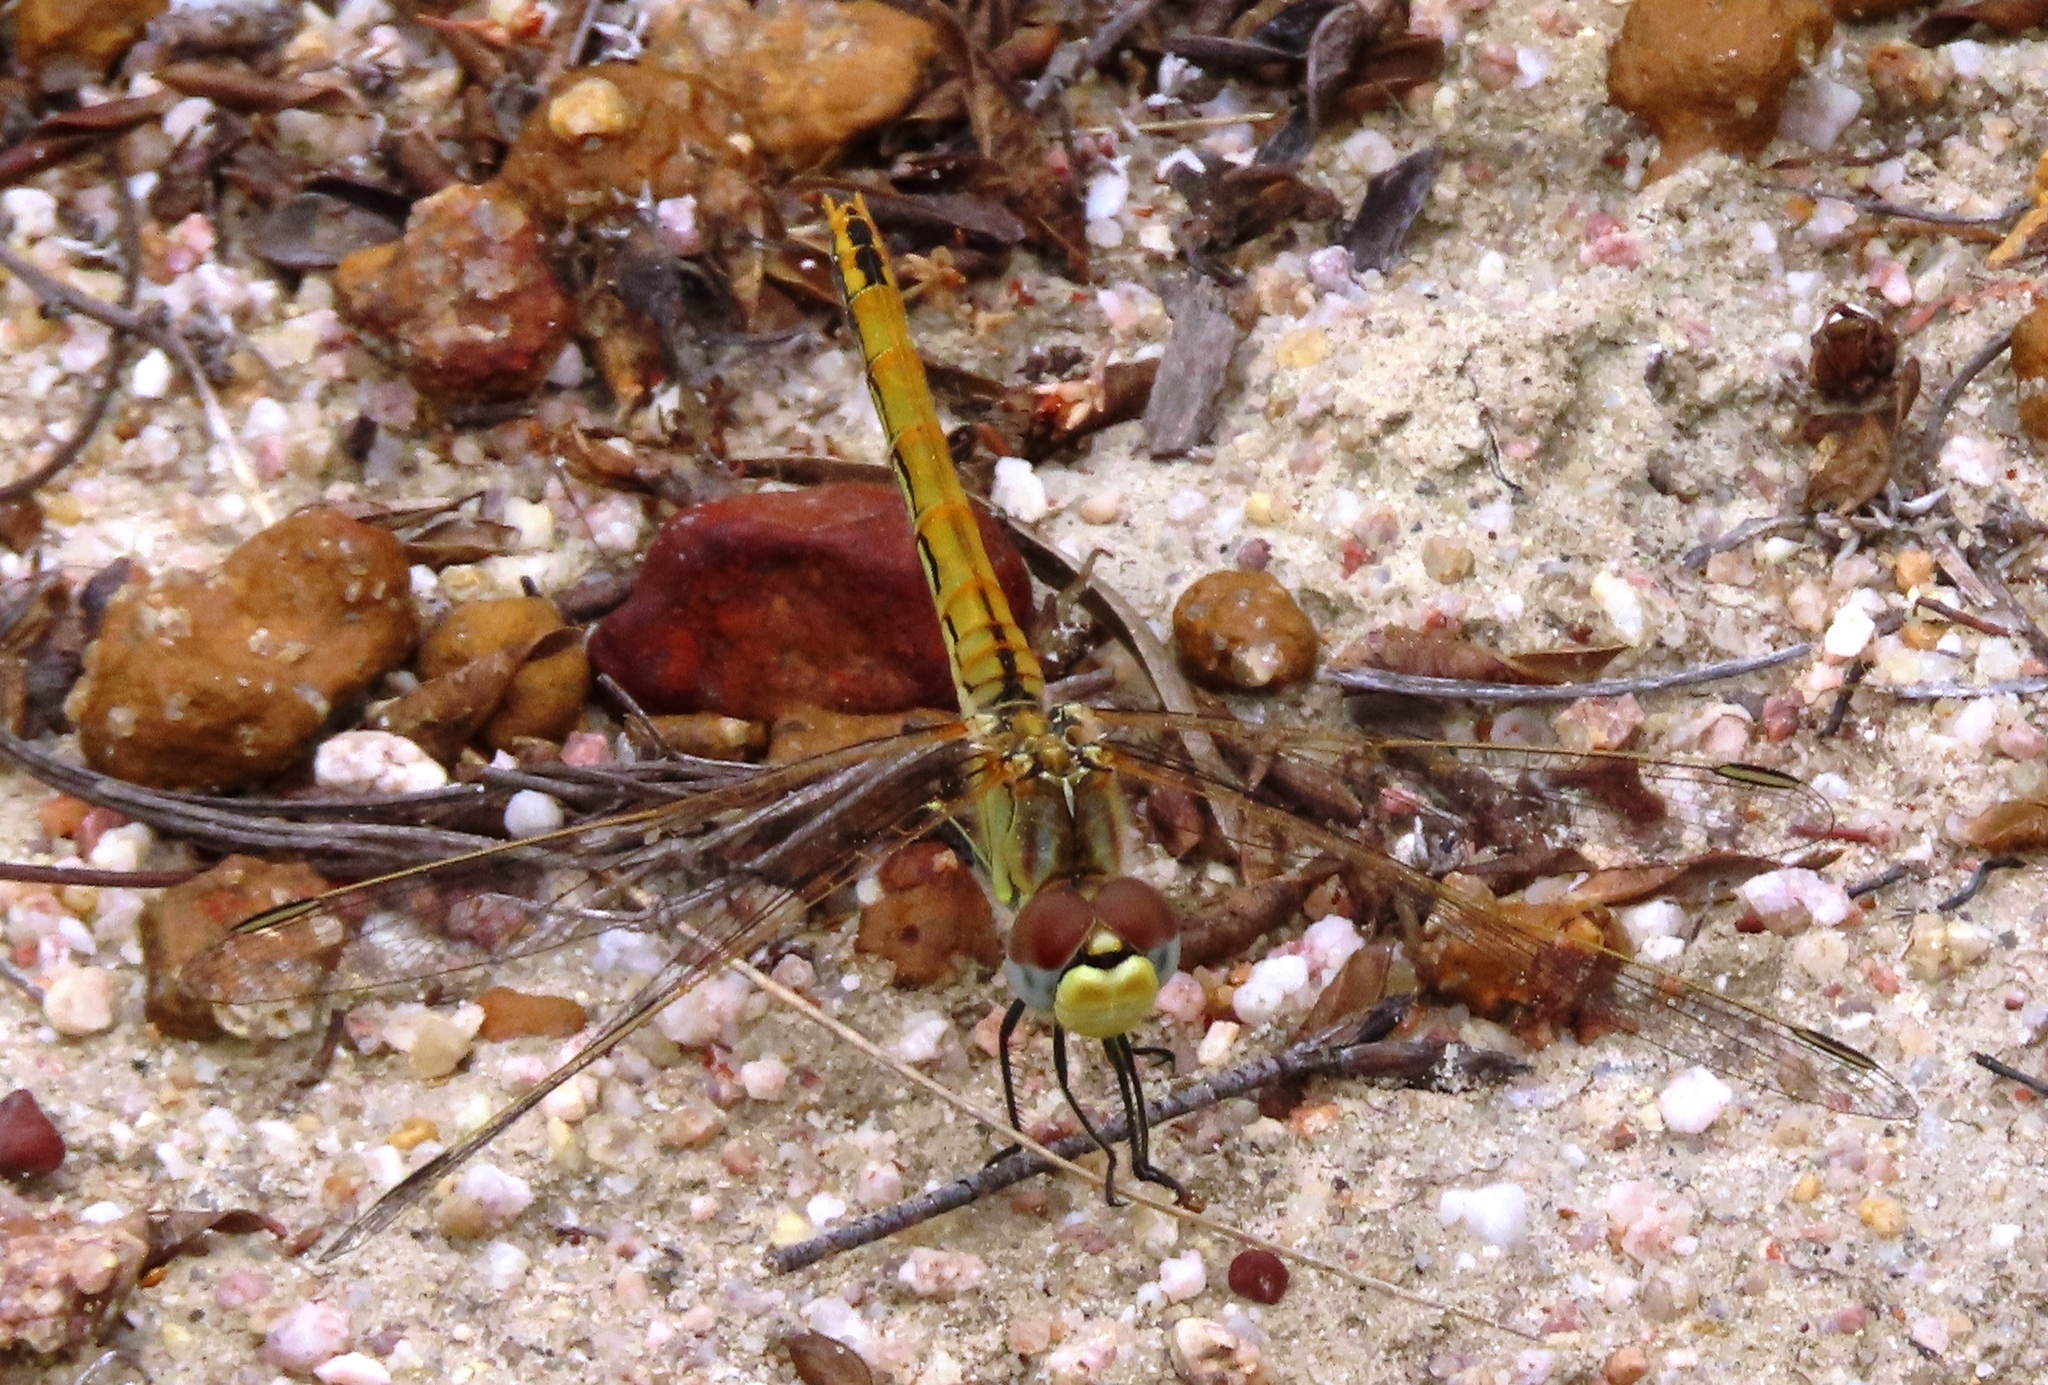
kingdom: Animalia
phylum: Arthropoda
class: Insecta
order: Odonata
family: Libellulidae
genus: Sympetrum
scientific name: Sympetrum fonscolombii
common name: Red-veined darter
